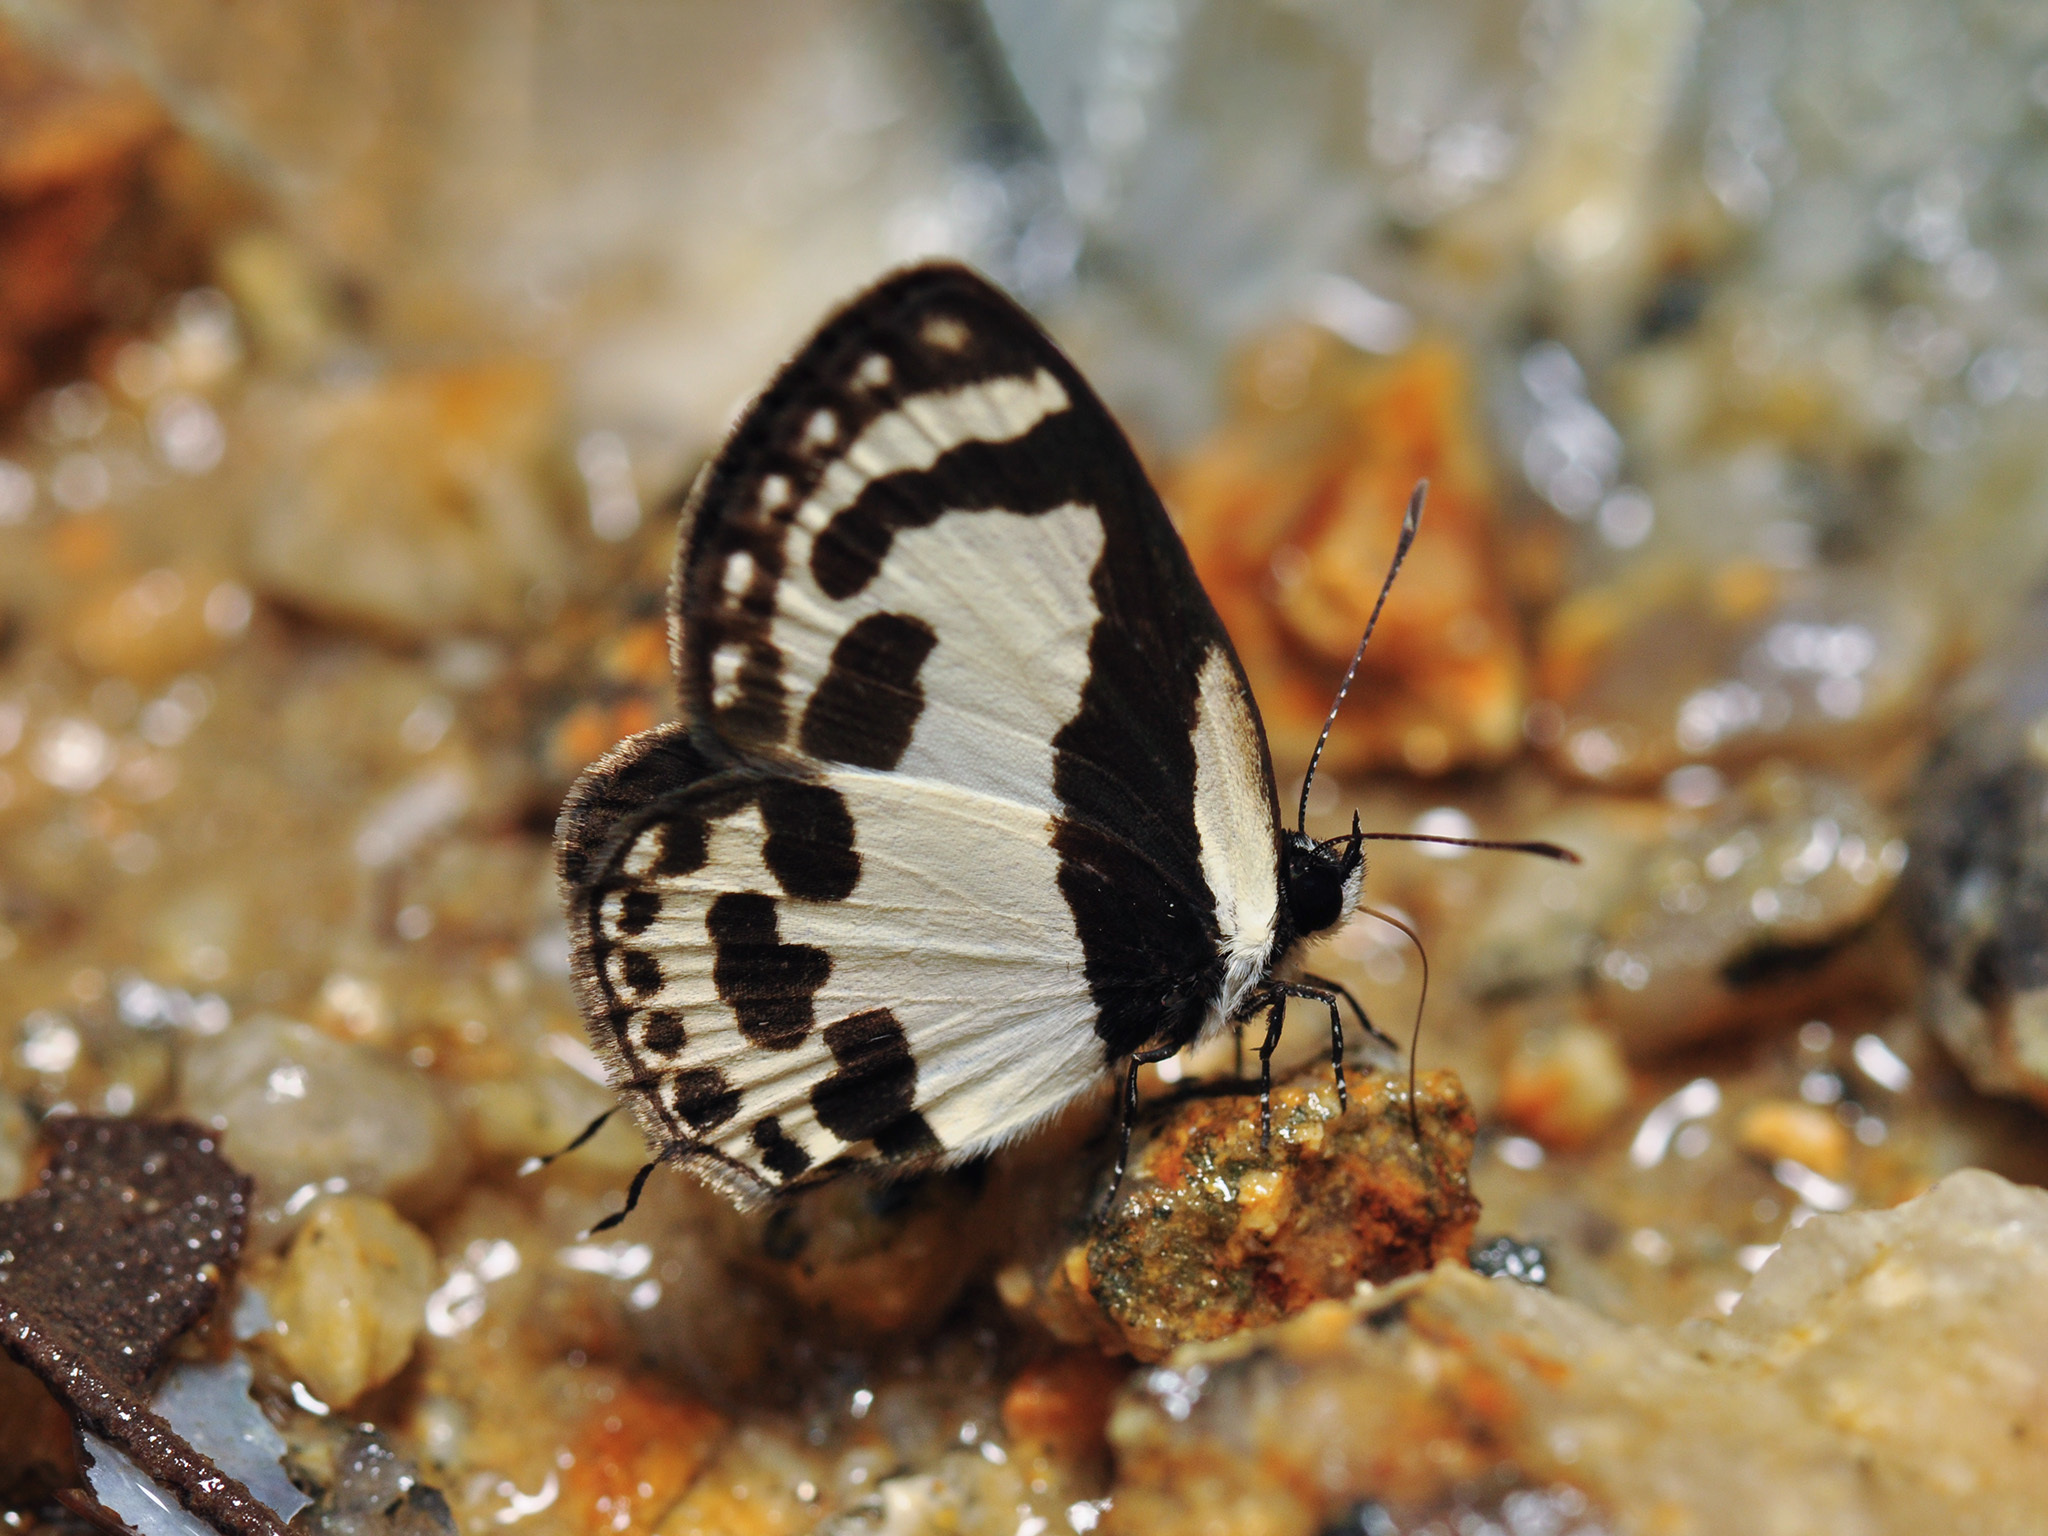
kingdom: Animalia
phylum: Arthropoda
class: Insecta
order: Lepidoptera
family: Lycaenidae
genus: Caleta
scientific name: Caleta roxus
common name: Straight pierrot
